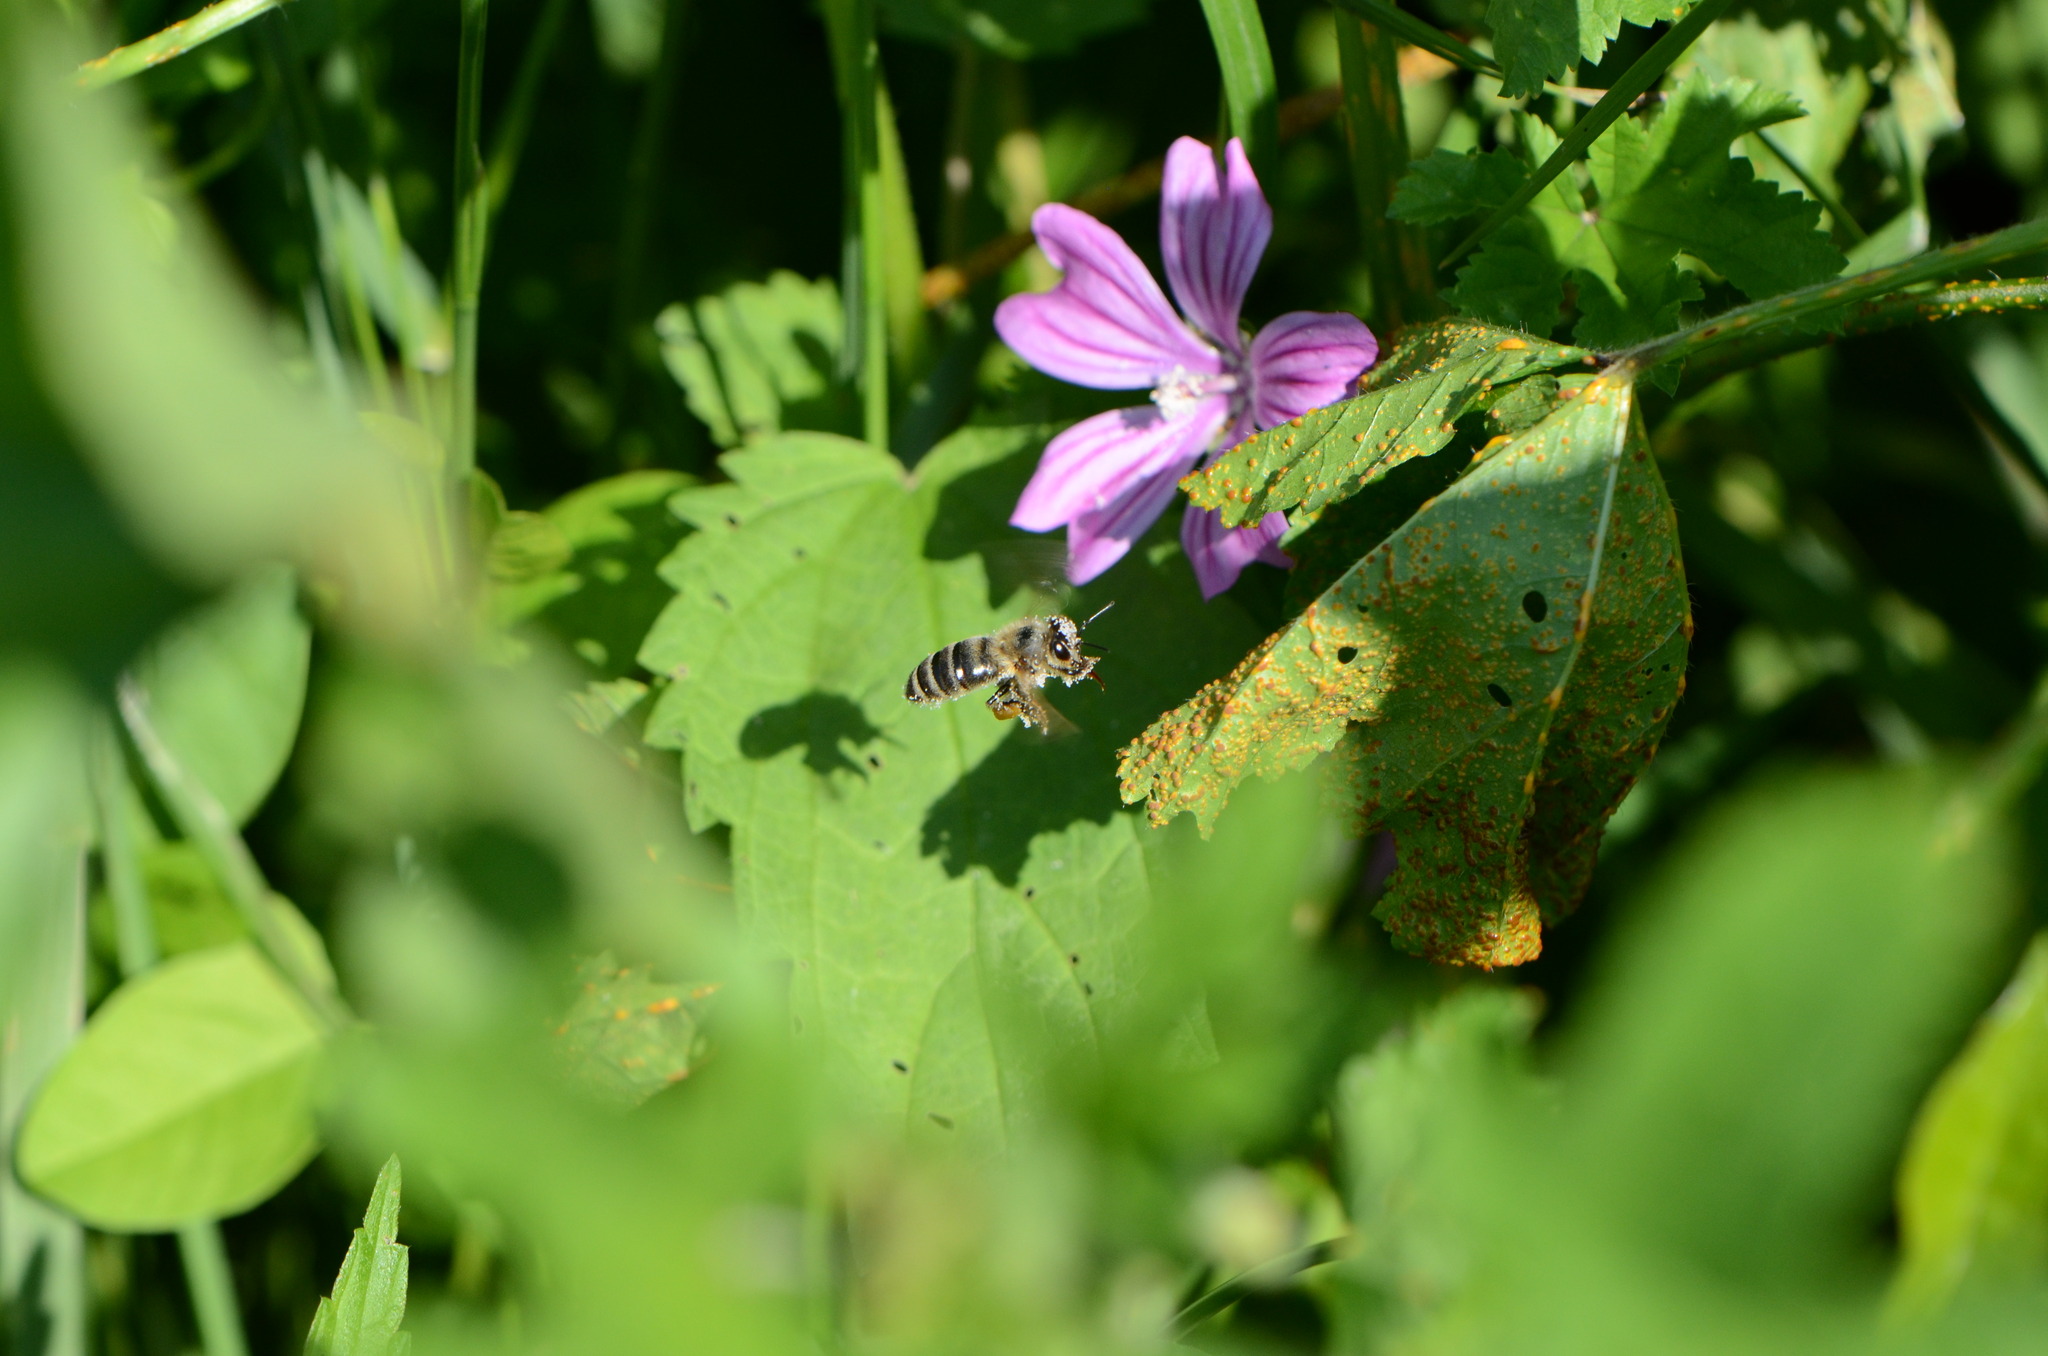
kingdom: Animalia
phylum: Arthropoda
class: Insecta
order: Hymenoptera
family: Apidae
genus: Apis
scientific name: Apis mellifera
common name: Honey bee
